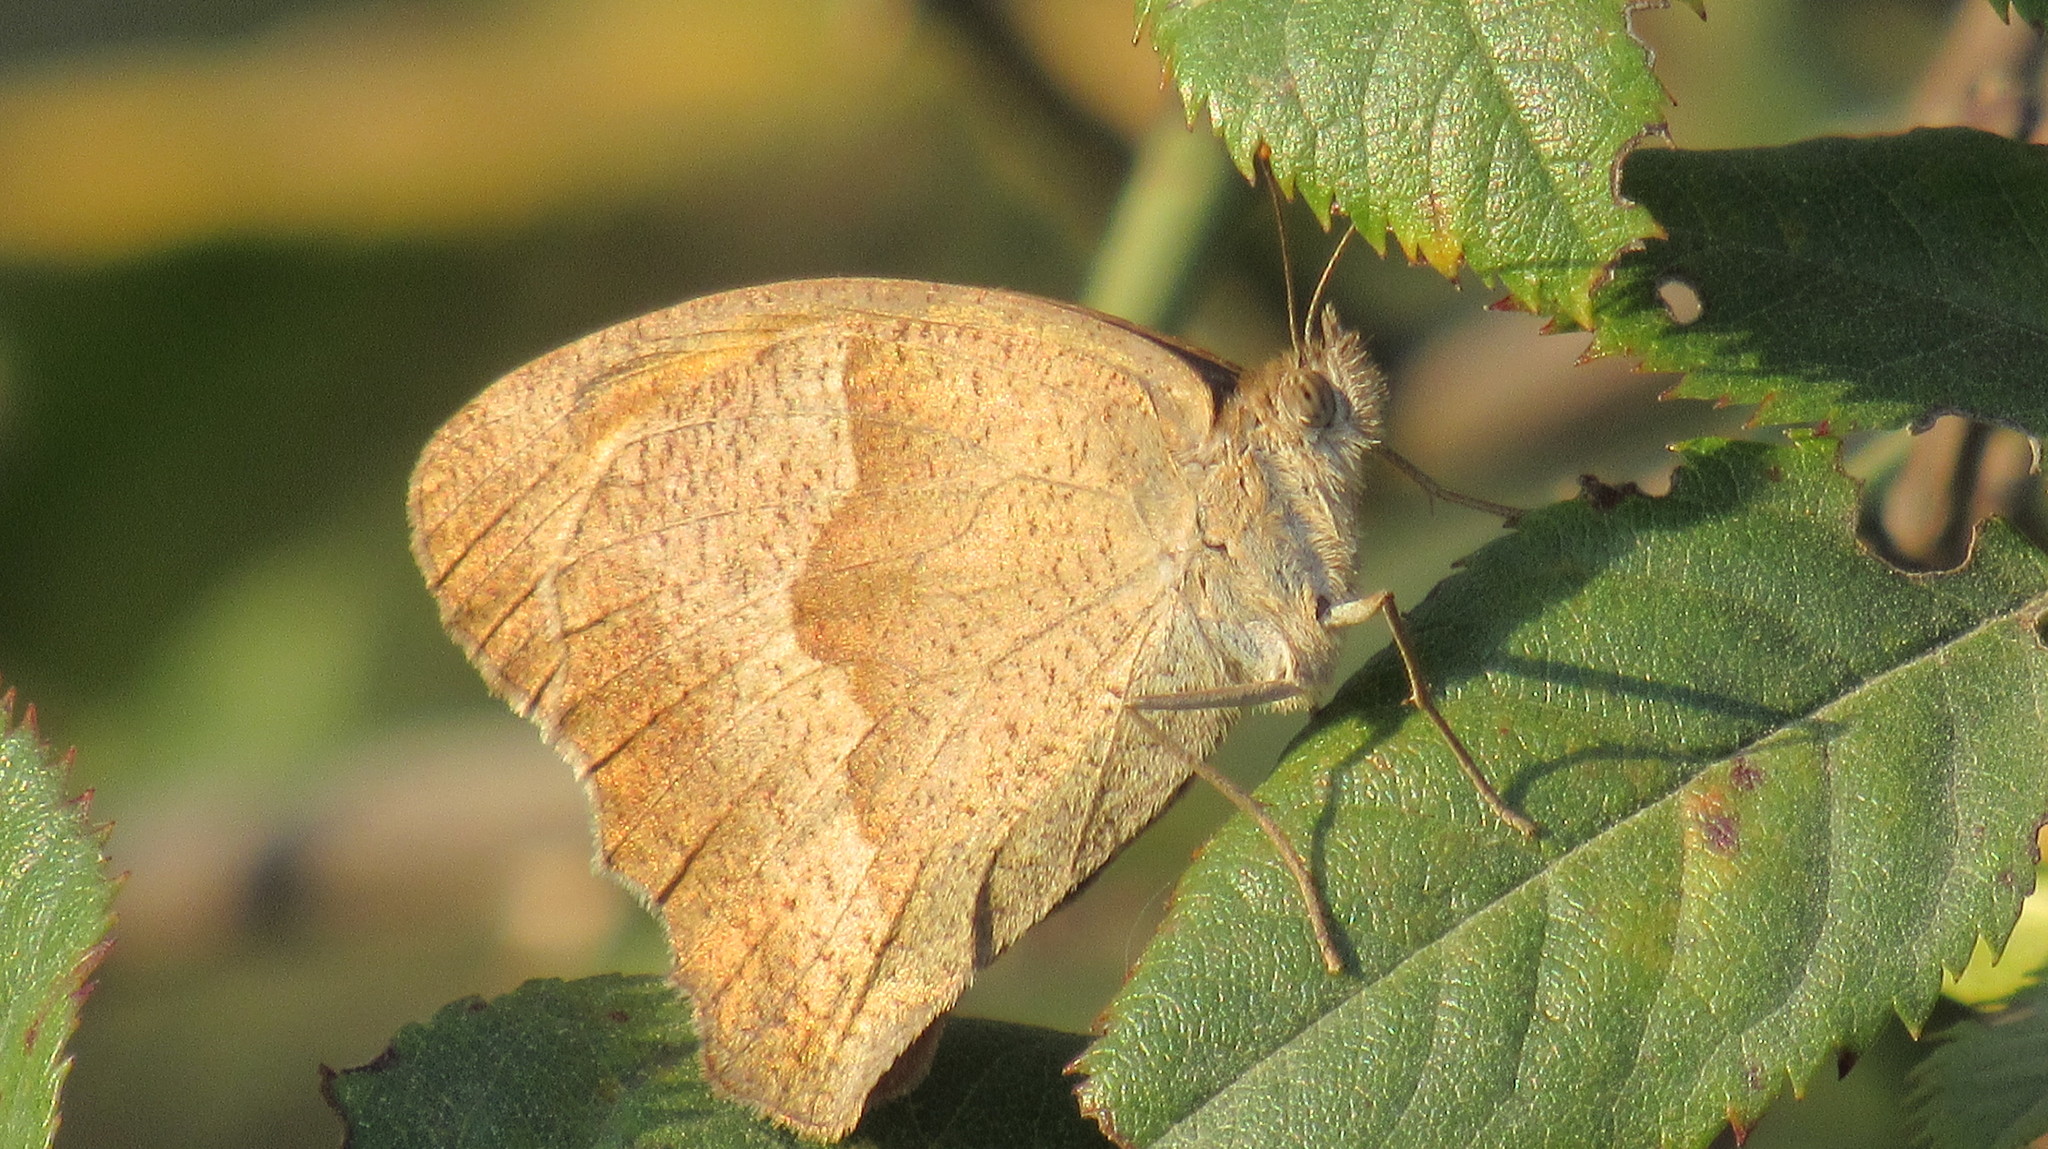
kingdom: Animalia
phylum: Arthropoda
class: Insecta
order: Lepidoptera
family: Nymphalidae
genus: Maniola
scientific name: Maniola jurtina
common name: Meadow brown
